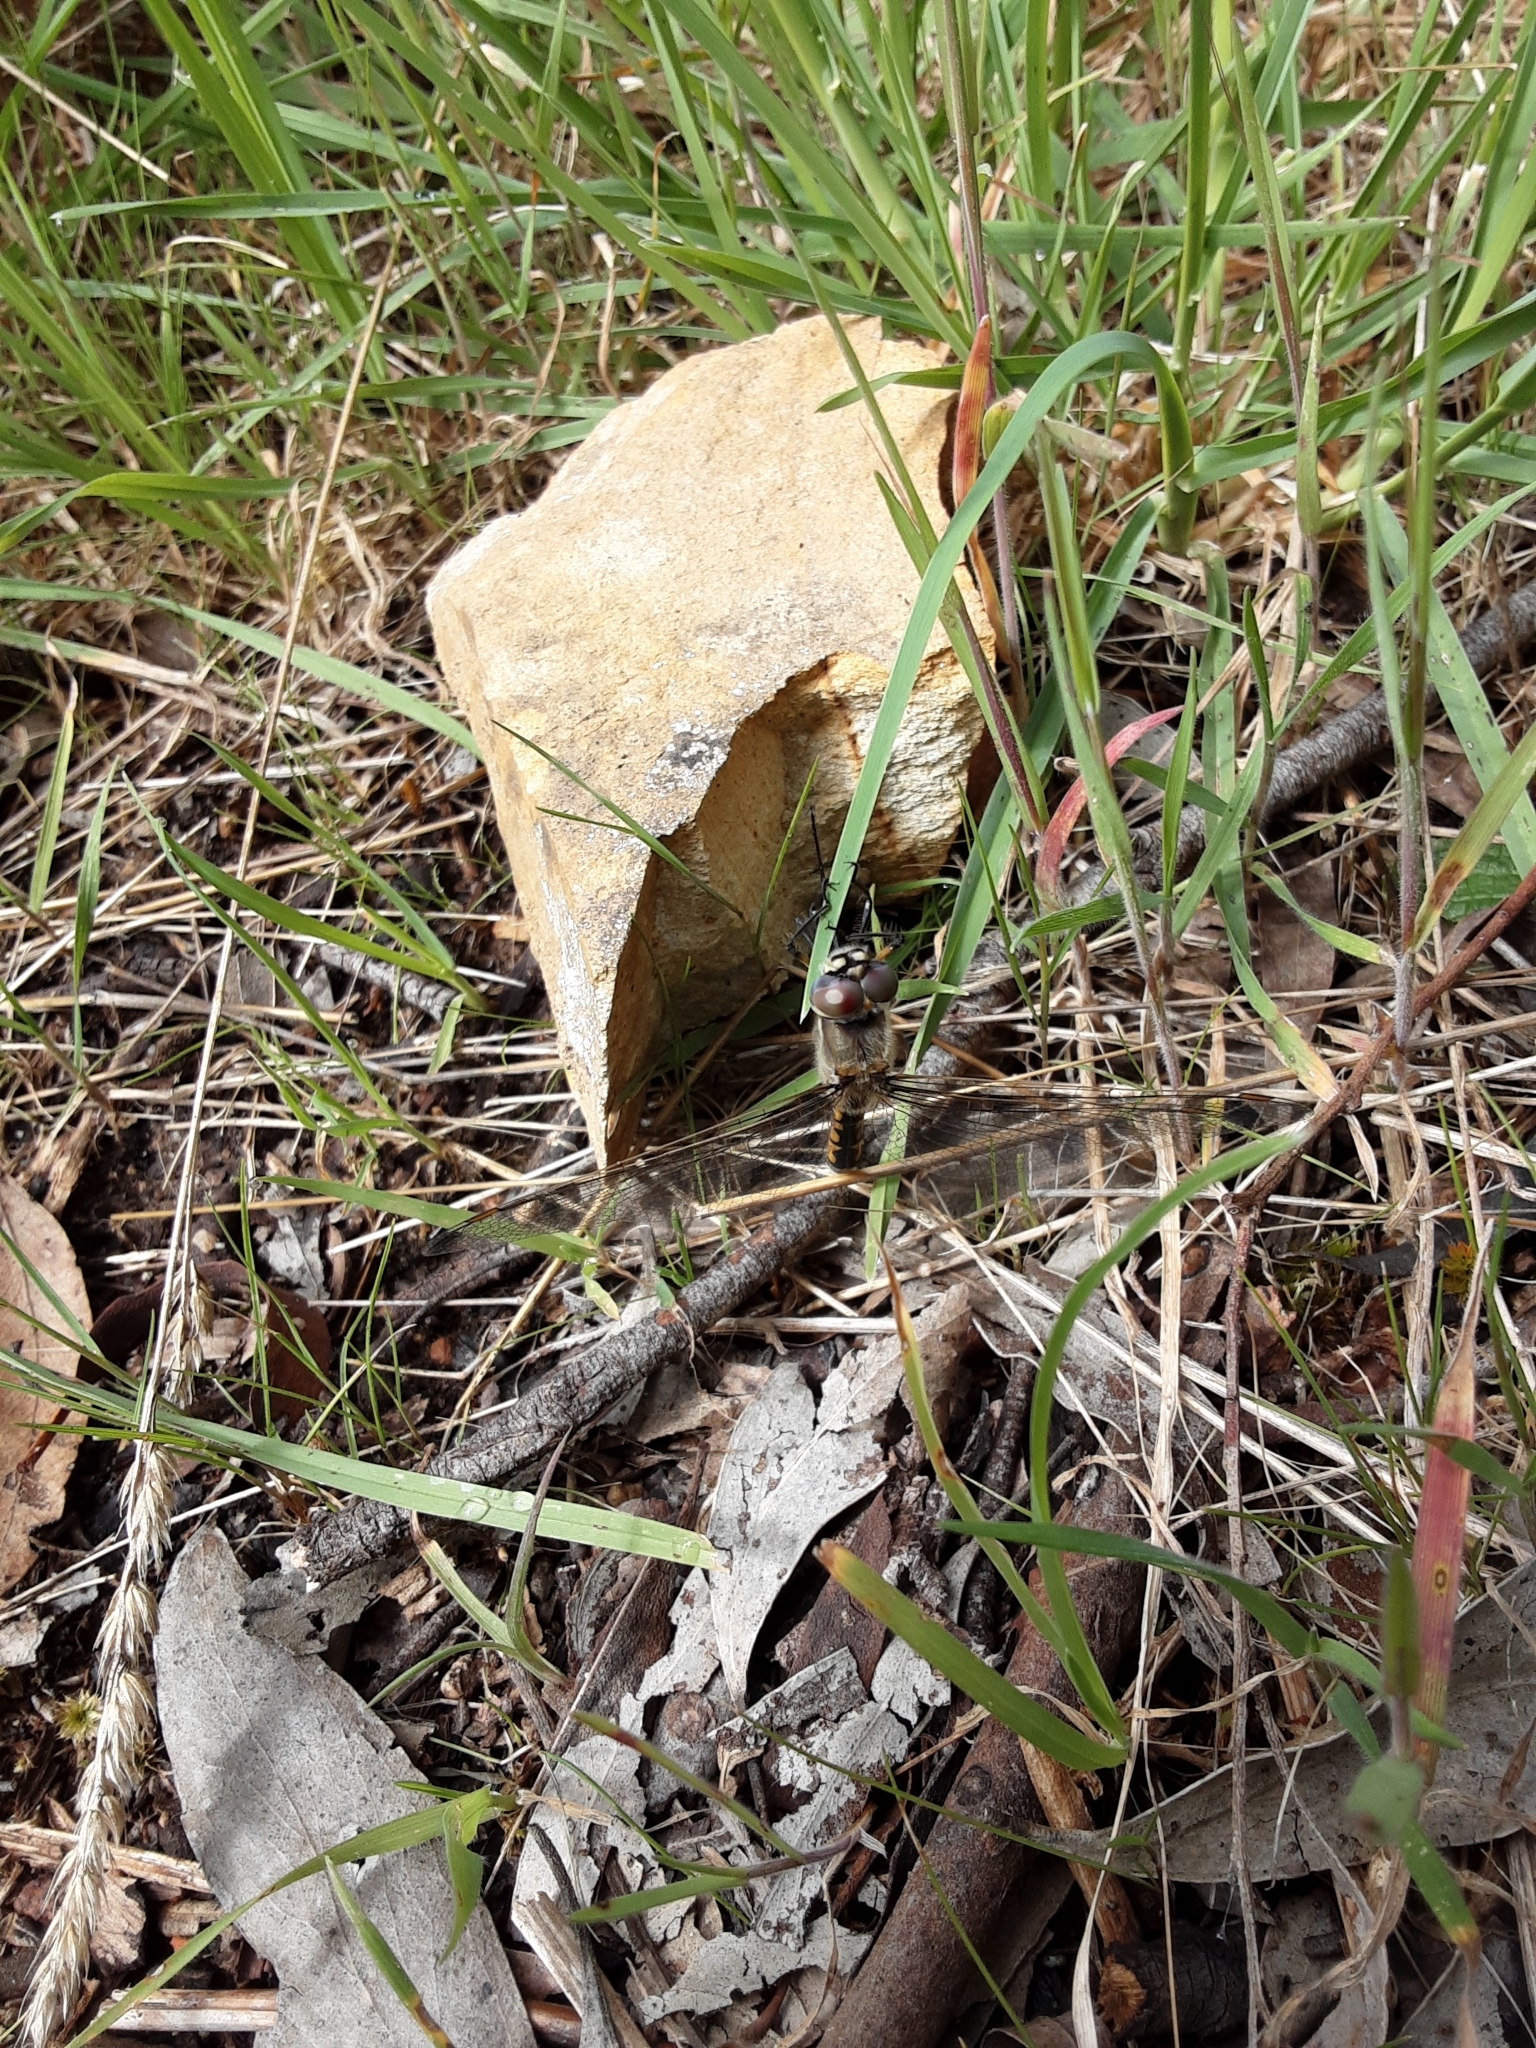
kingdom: Animalia
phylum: Arthropoda
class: Insecta
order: Odonata
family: Corduliidae
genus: Hemicordulia
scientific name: Hemicordulia tau
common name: Tau emerald
